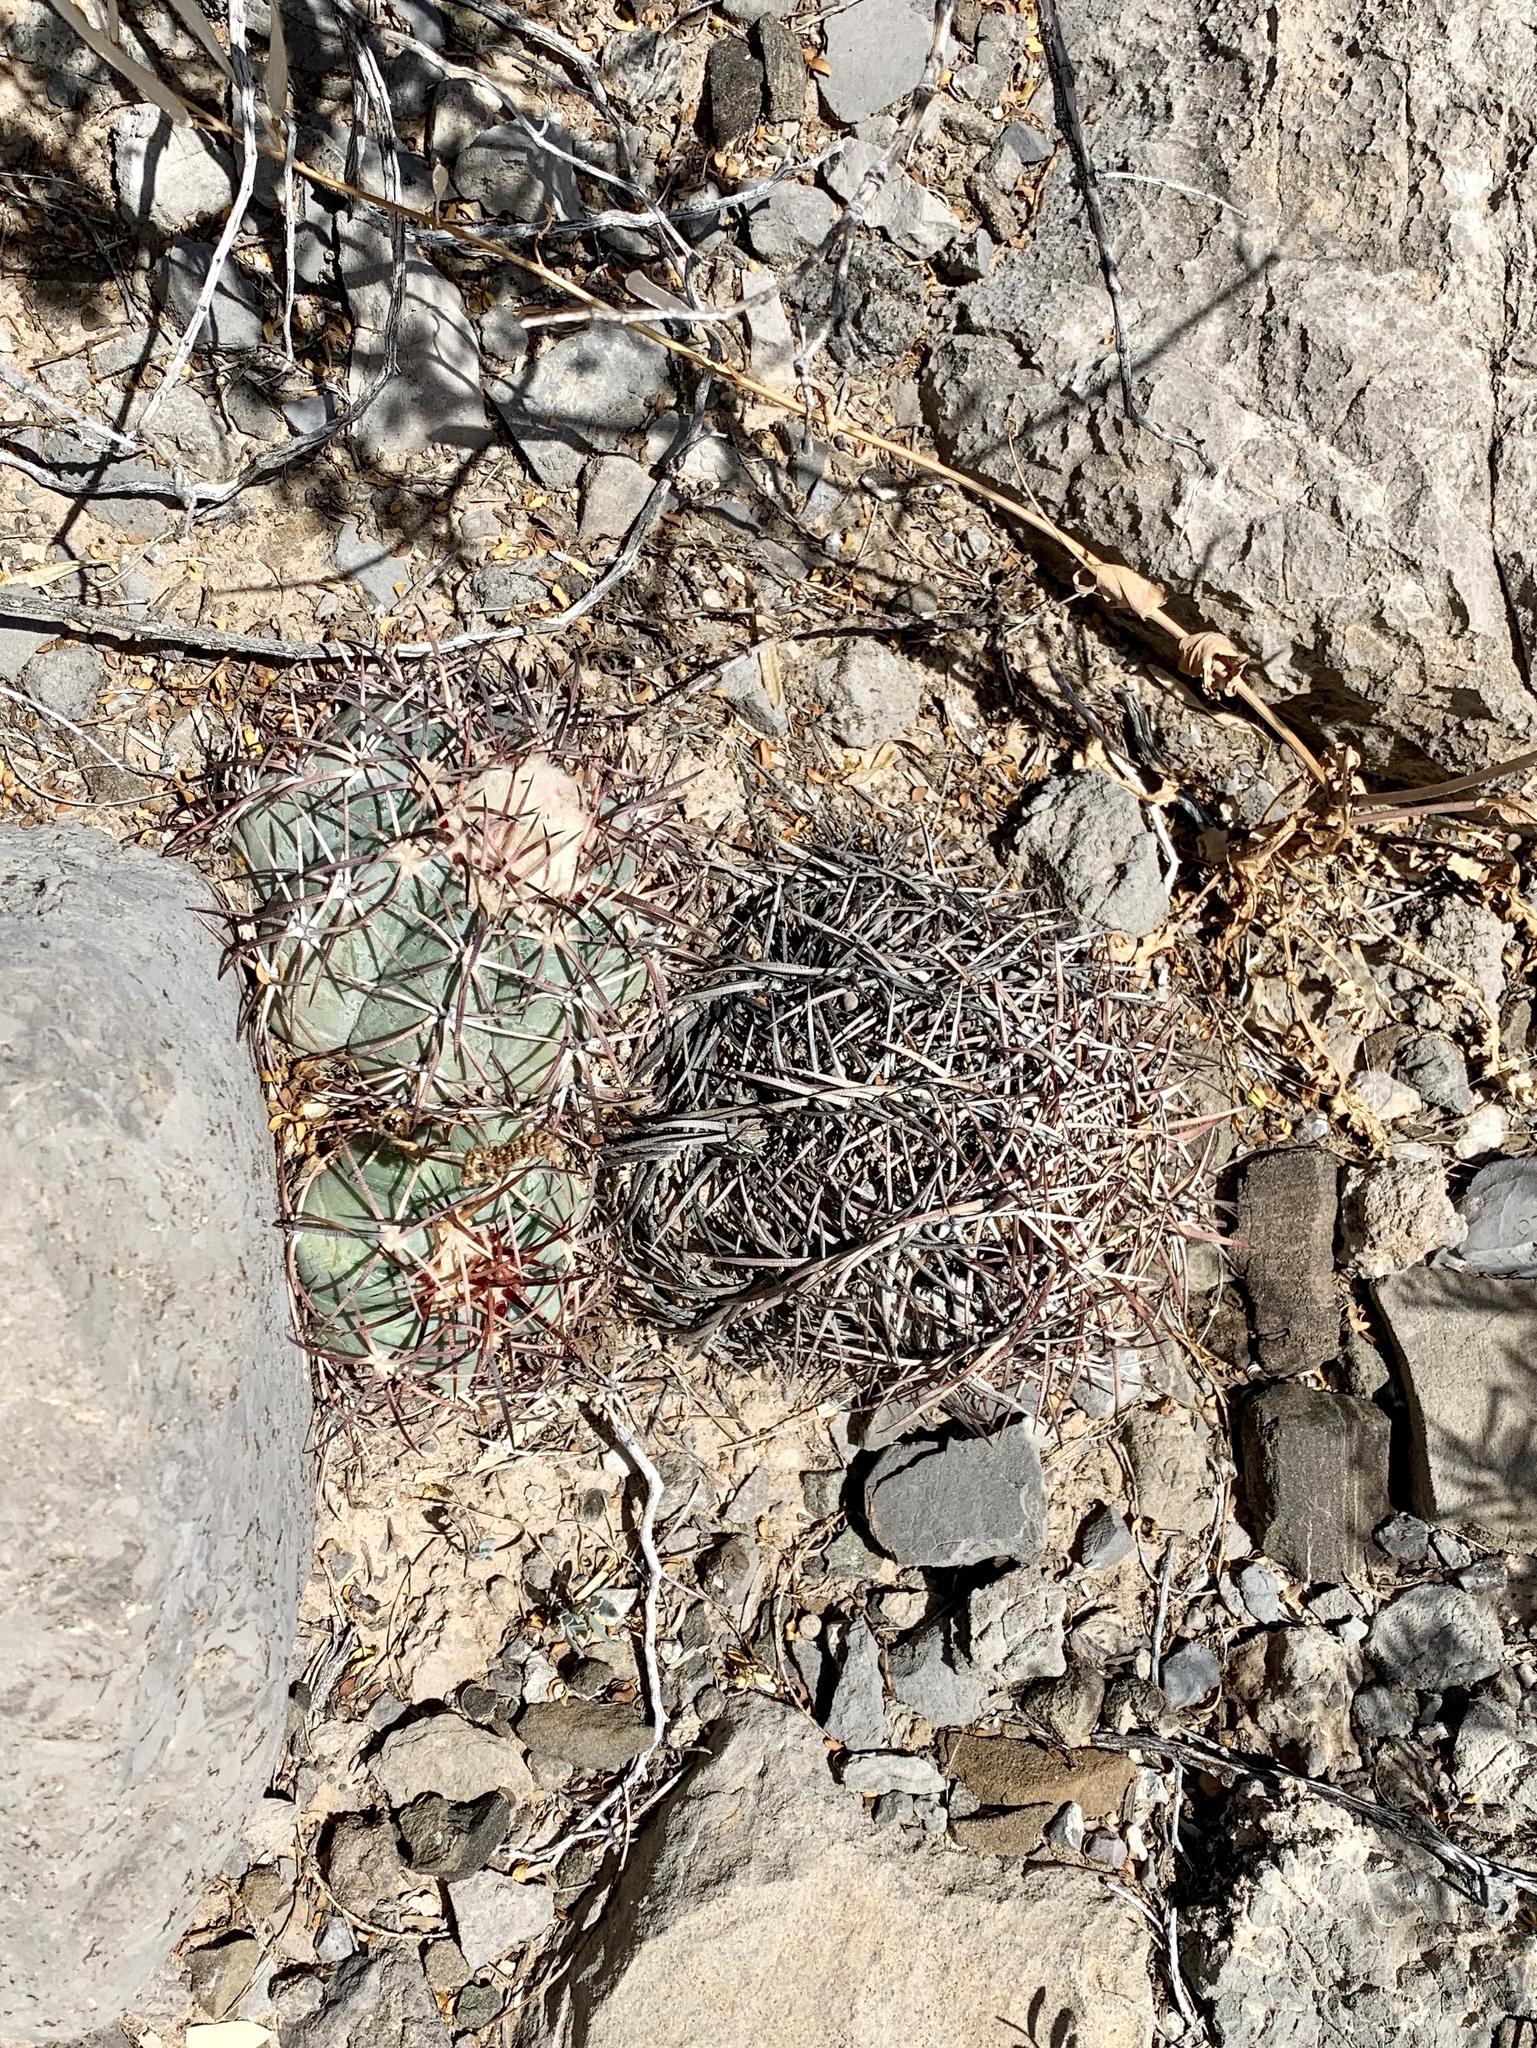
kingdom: Plantae
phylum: Tracheophyta
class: Magnoliopsida
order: Caryophyllales
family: Cactaceae
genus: Echinocactus
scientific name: Echinocactus horizonthalonius
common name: Devilshead
